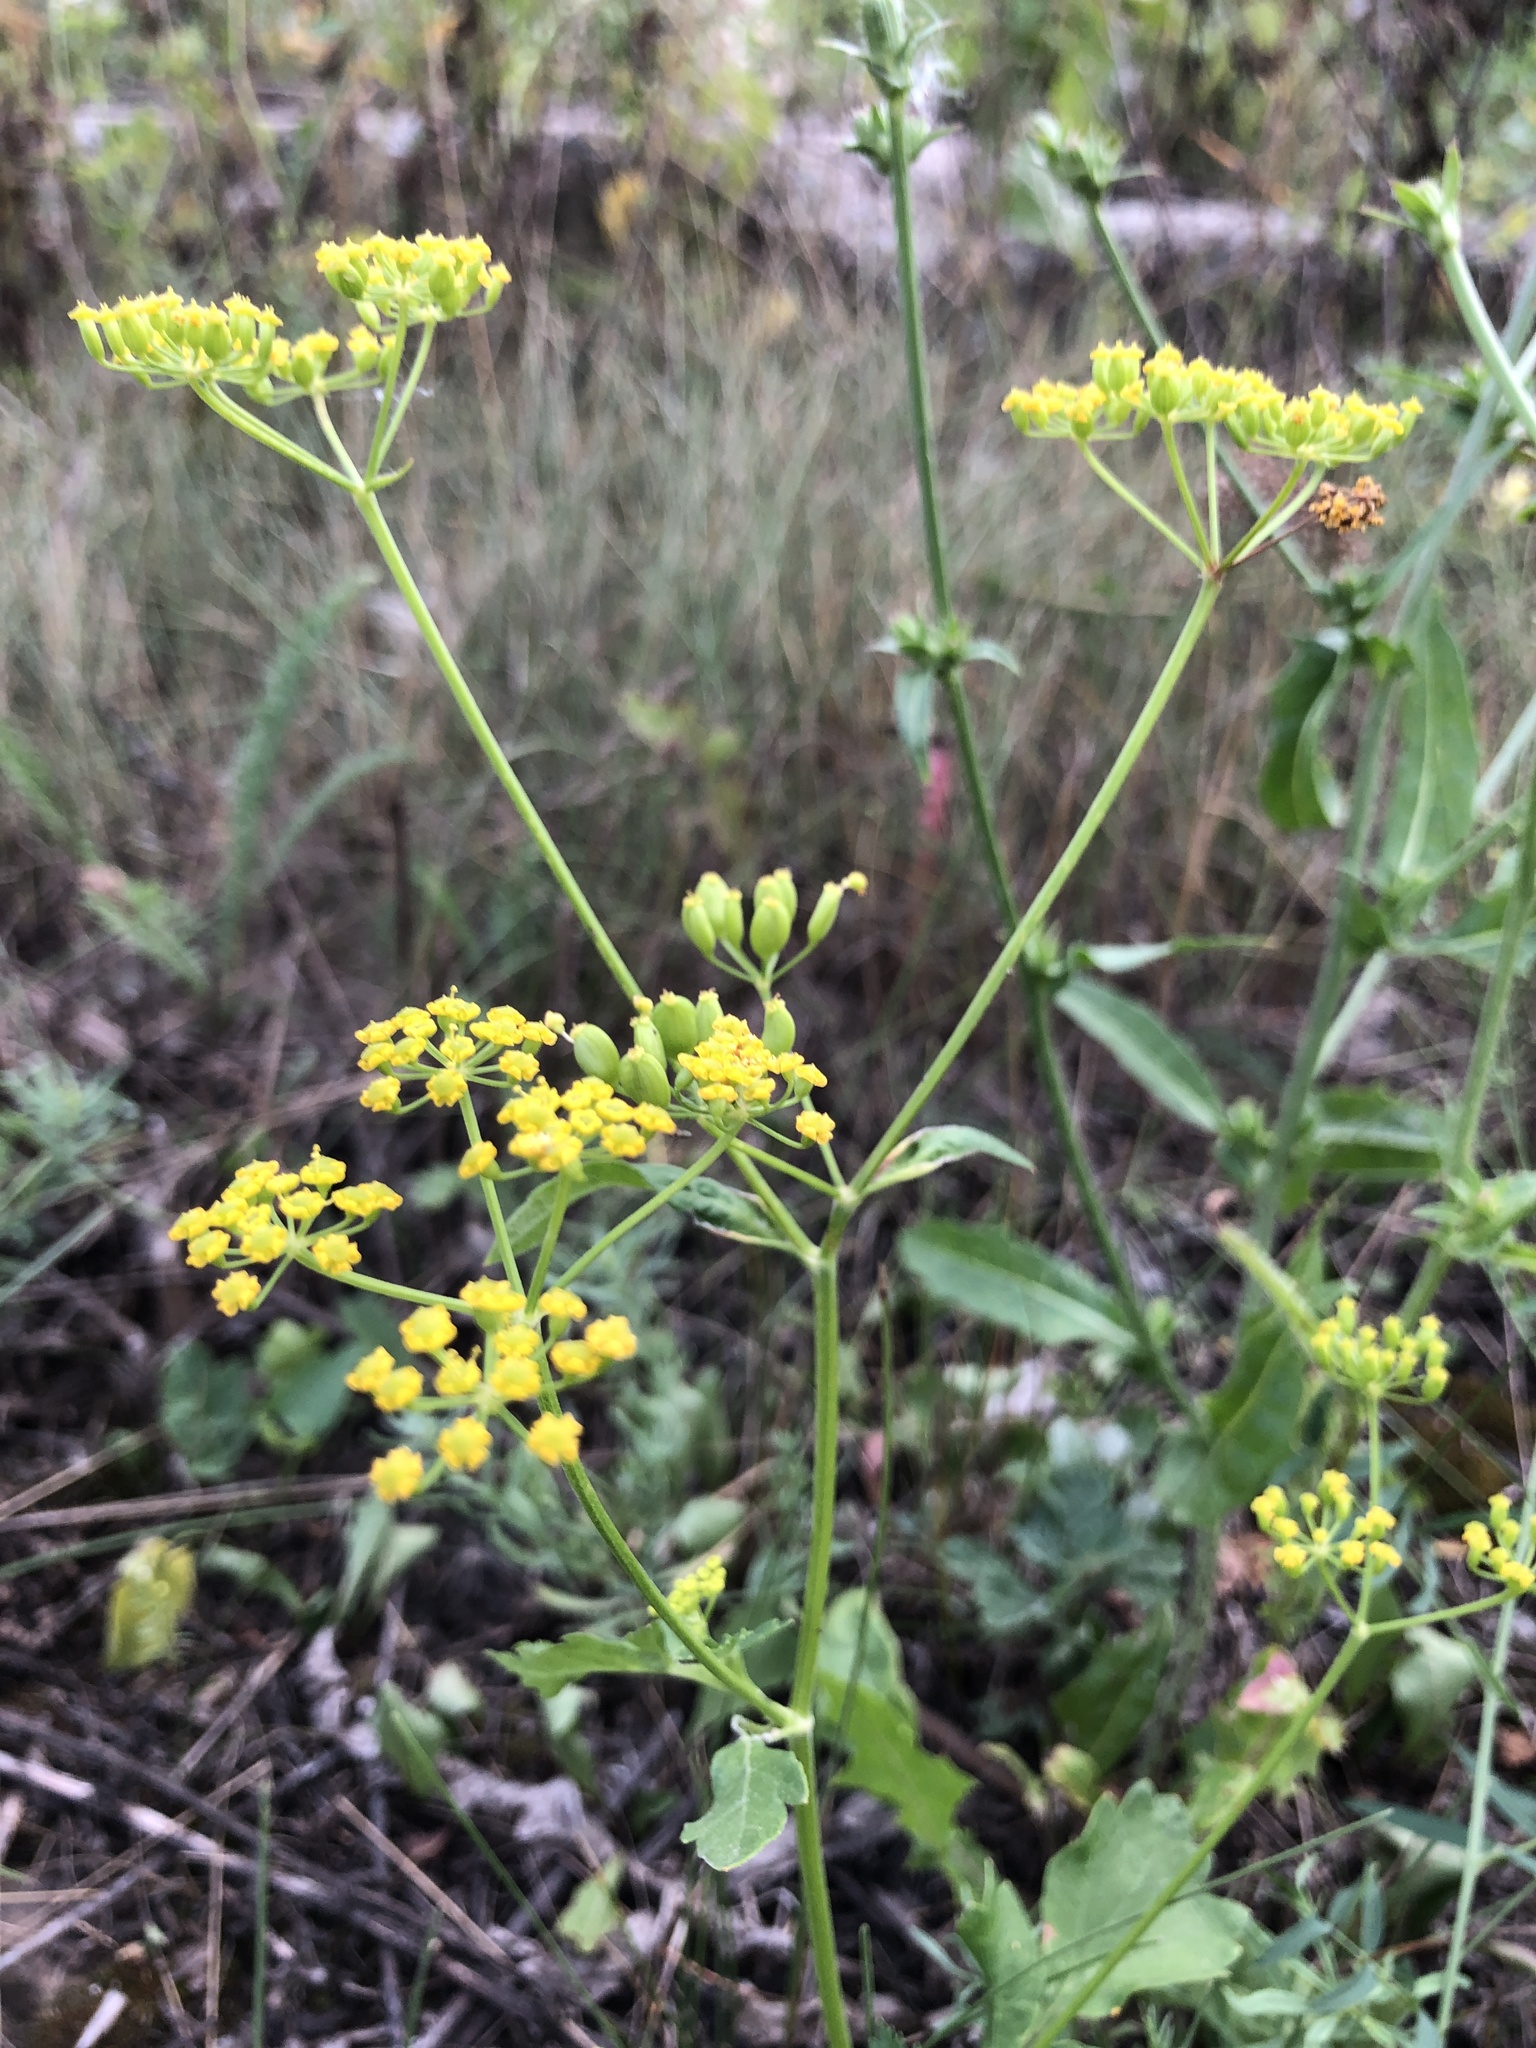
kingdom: Plantae
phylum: Tracheophyta
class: Magnoliopsida
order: Apiales
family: Apiaceae
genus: Pastinaca
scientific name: Pastinaca sativa
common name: Wild parsnip
